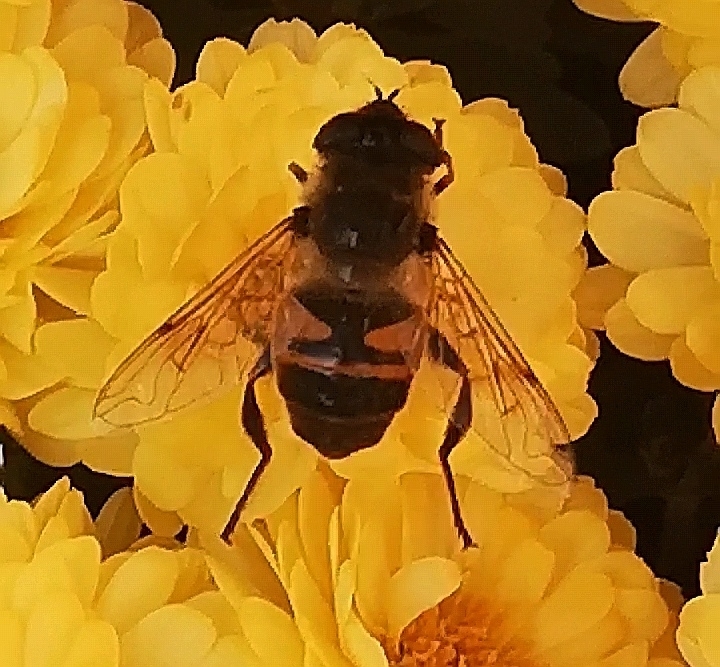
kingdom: Animalia
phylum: Arthropoda
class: Insecta
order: Diptera
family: Syrphidae
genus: Eristalis
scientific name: Eristalis tenax
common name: Drone fly
